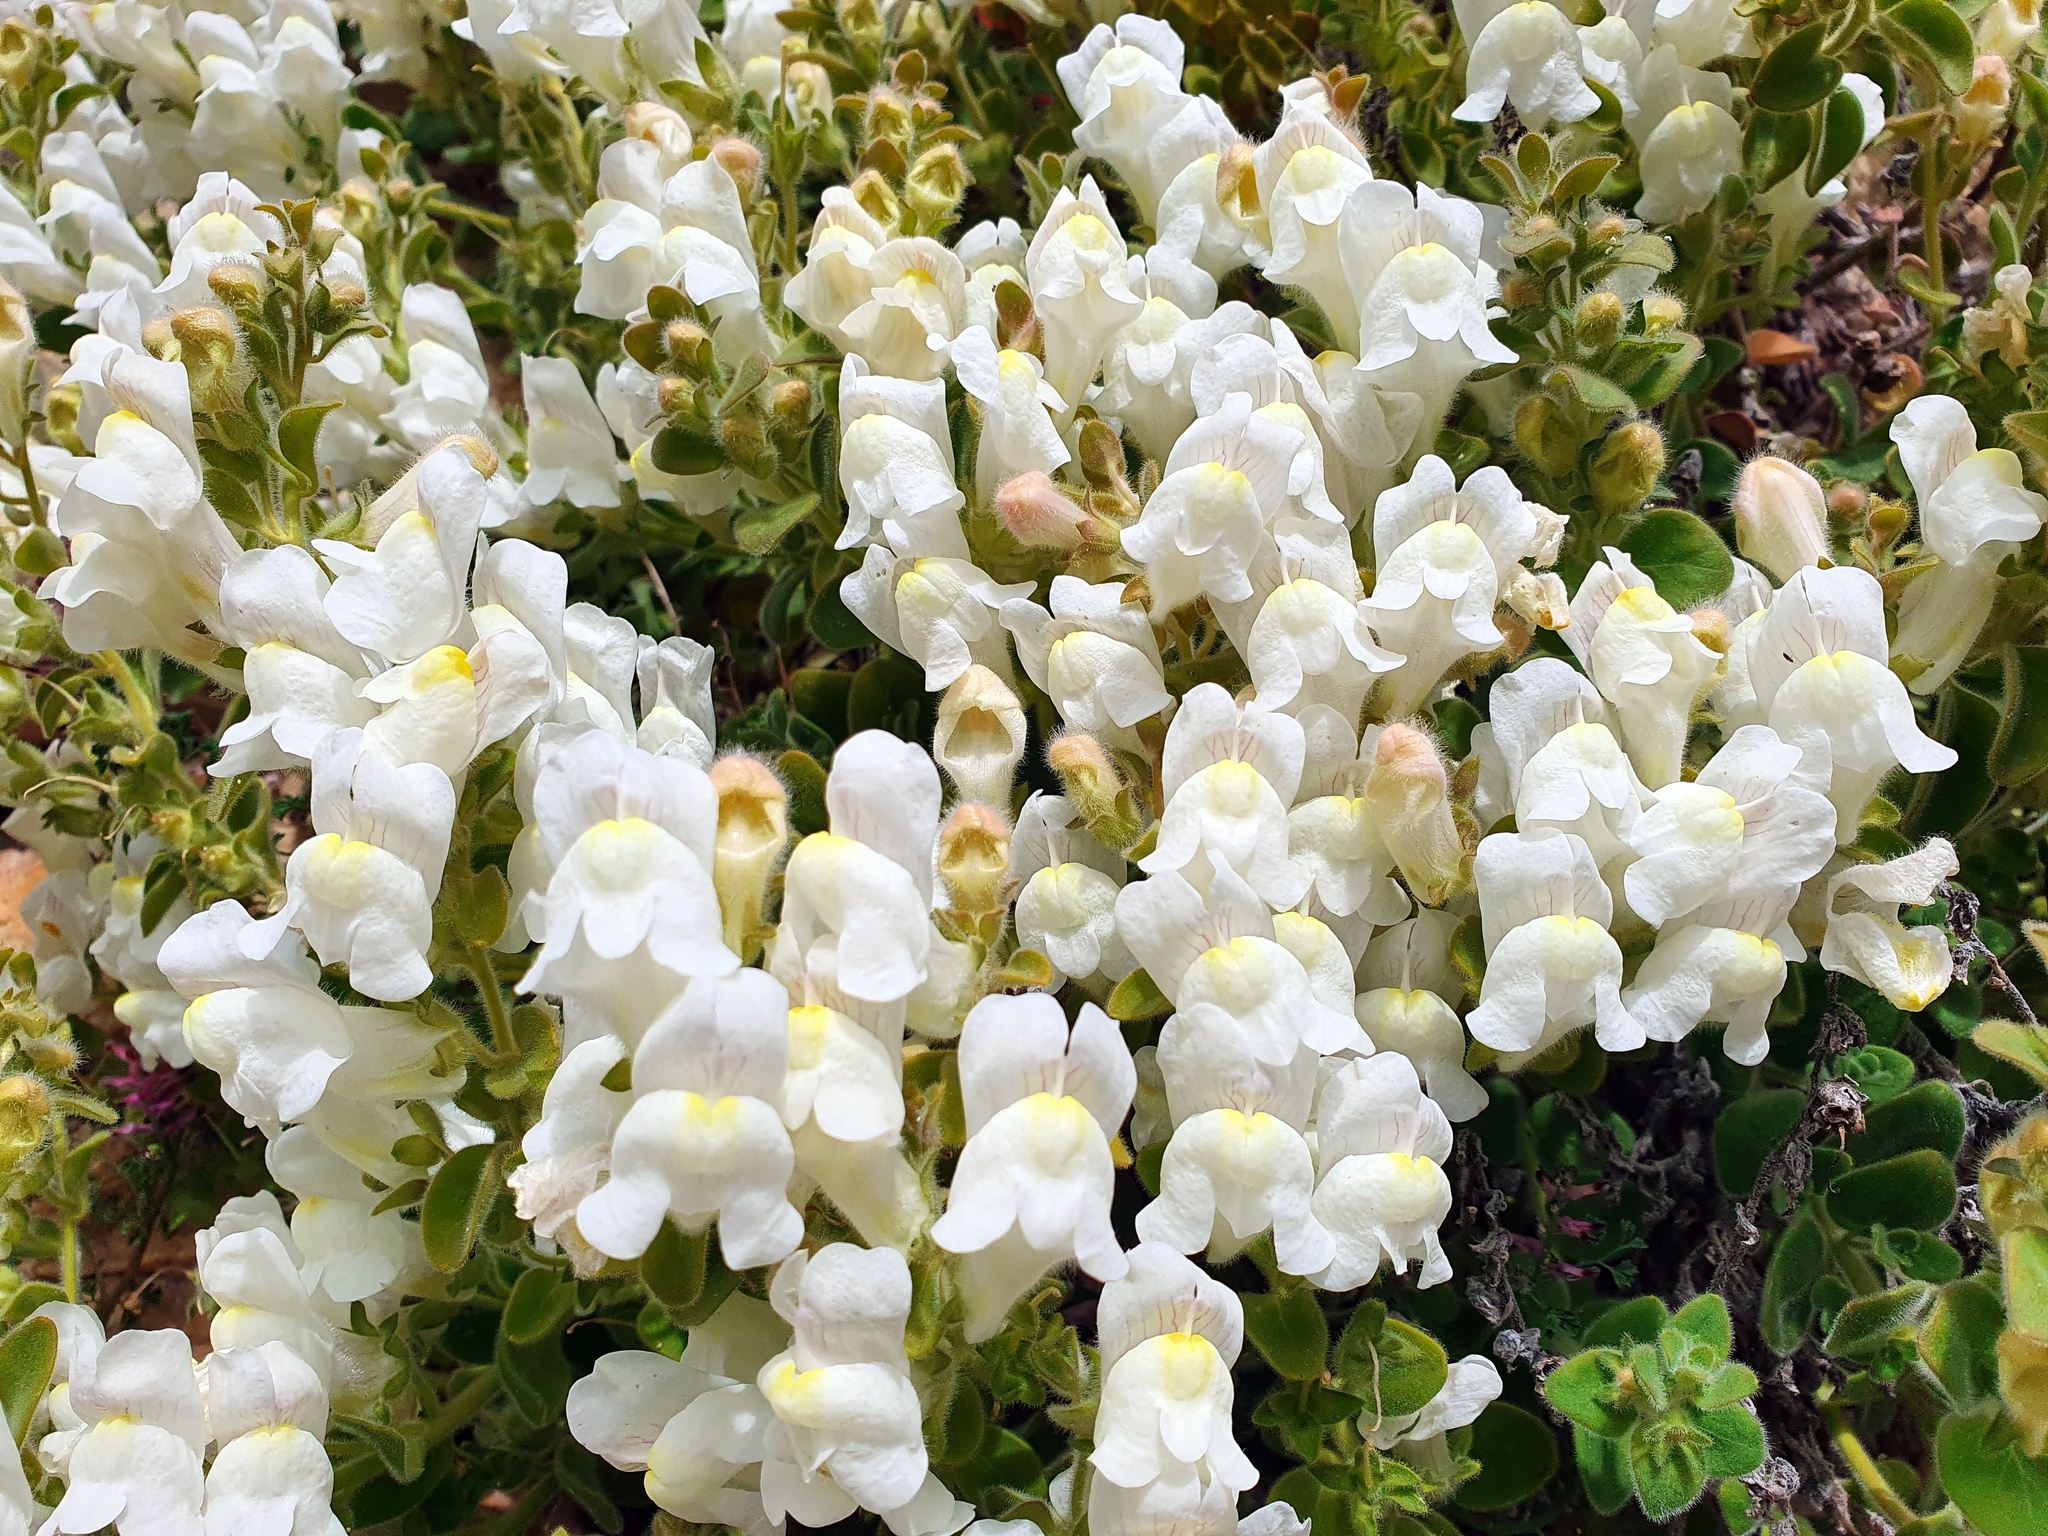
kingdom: Plantae
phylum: Tracheophyta
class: Magnoliopsida
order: Lamiales
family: Plantaginaceae
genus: Antirrhinum
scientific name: Antirrhinum molle
